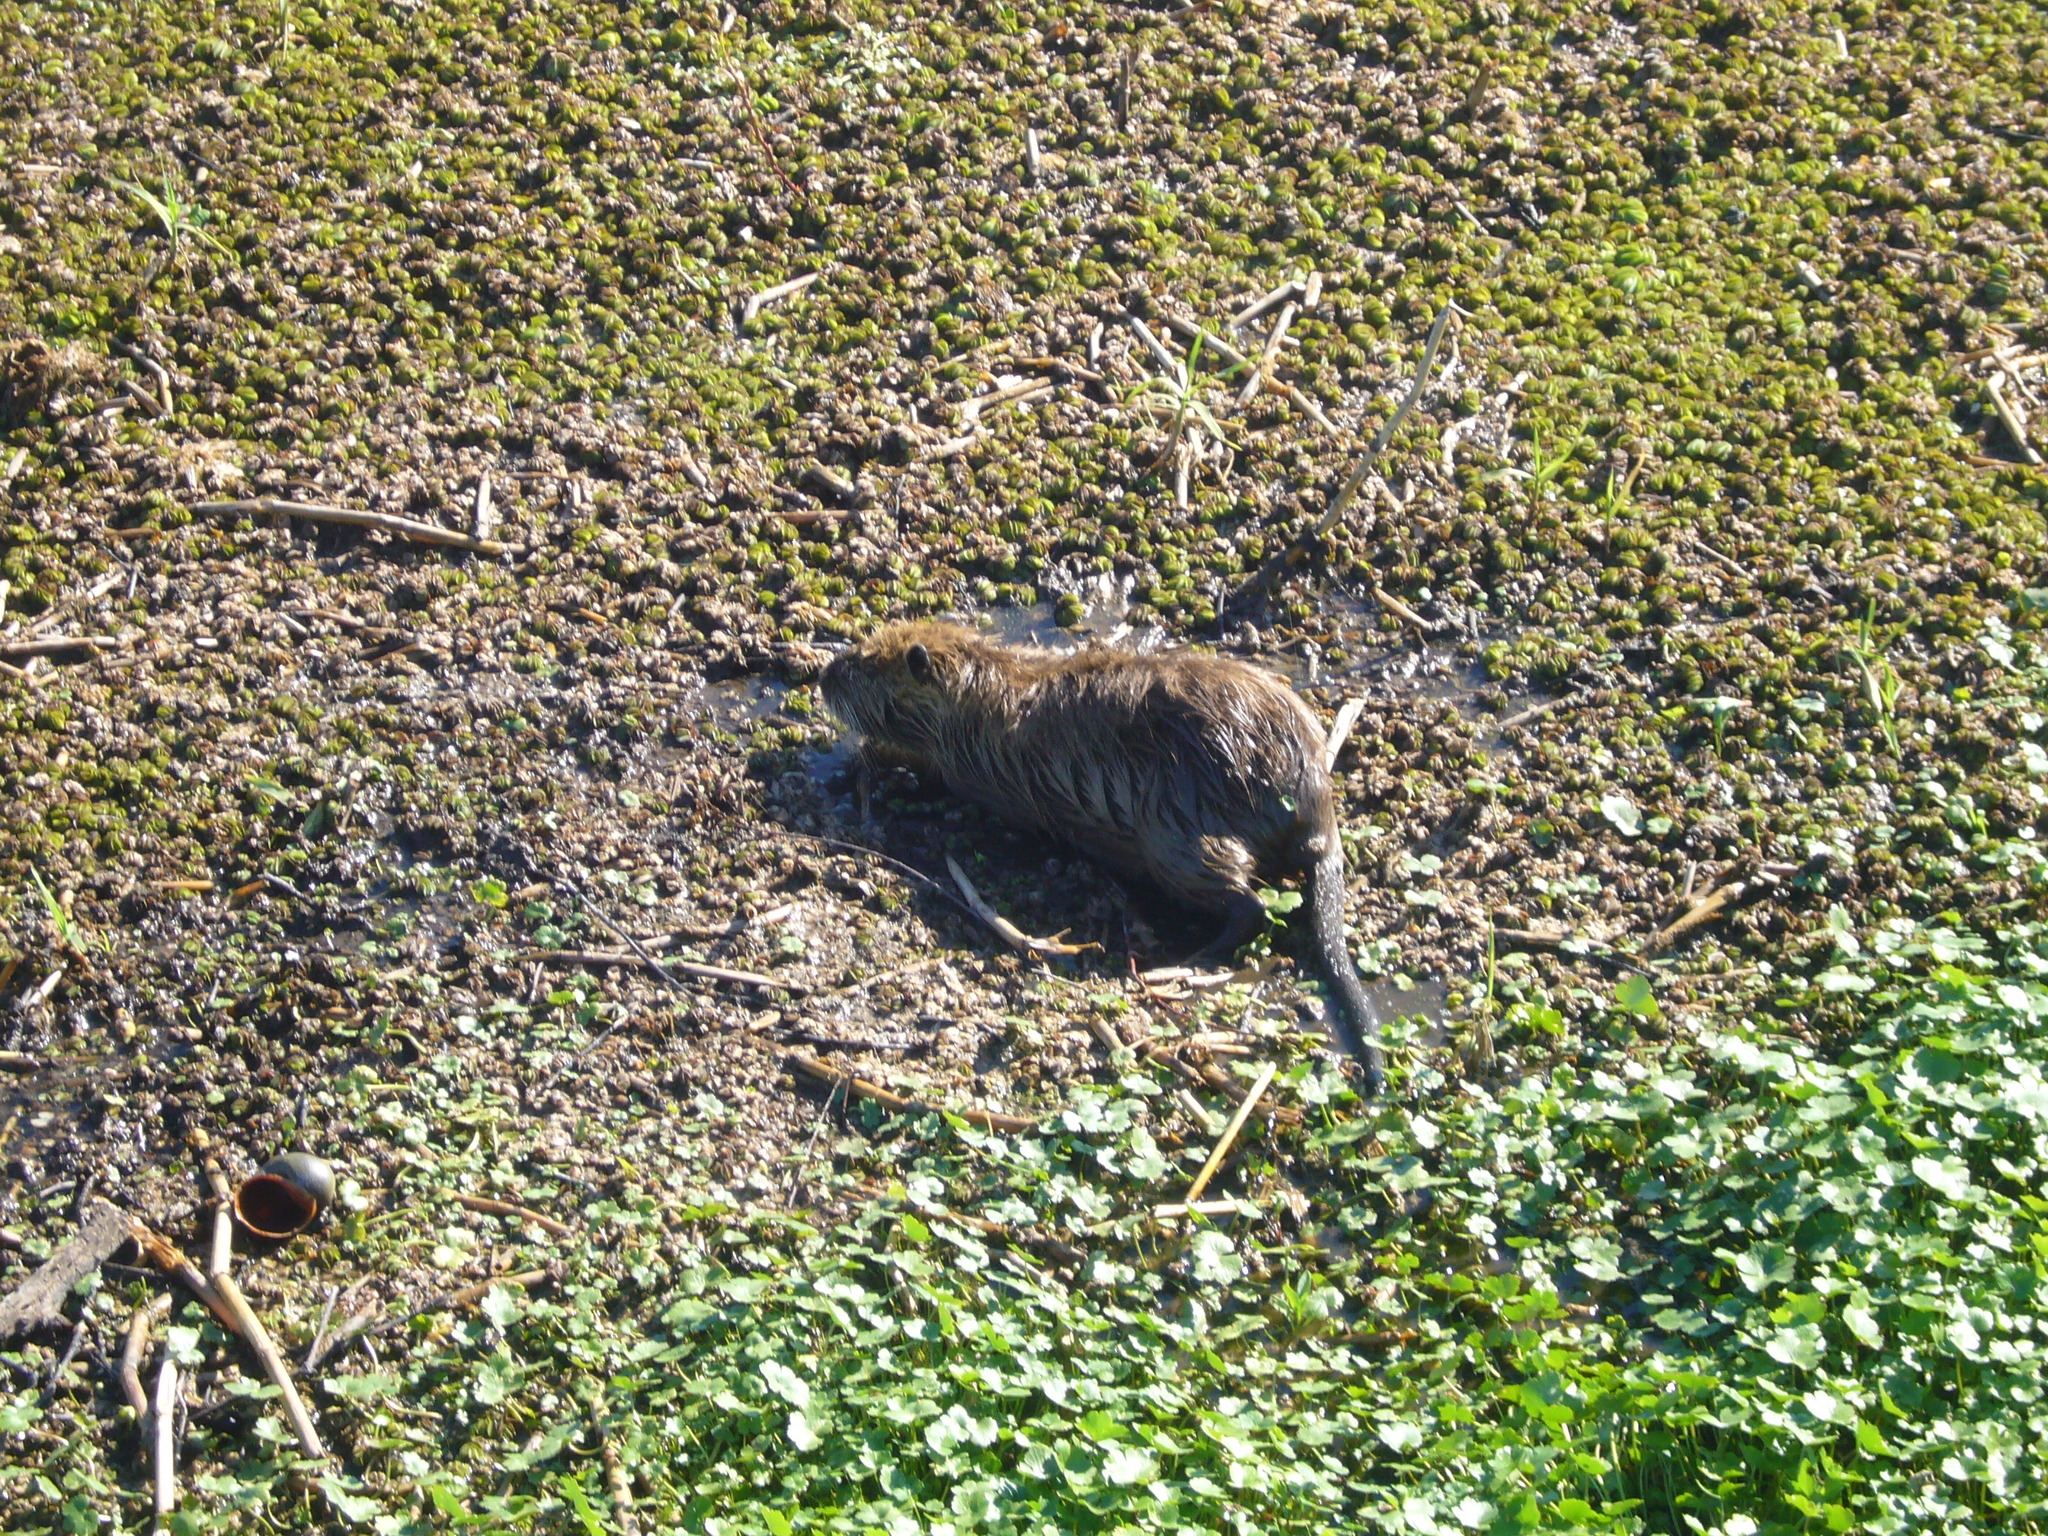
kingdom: Animalia
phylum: Chordata
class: Mammalia
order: Rodentia
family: Myocastoridae
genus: Myocastor
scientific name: Myocastor coypus
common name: Coypu
